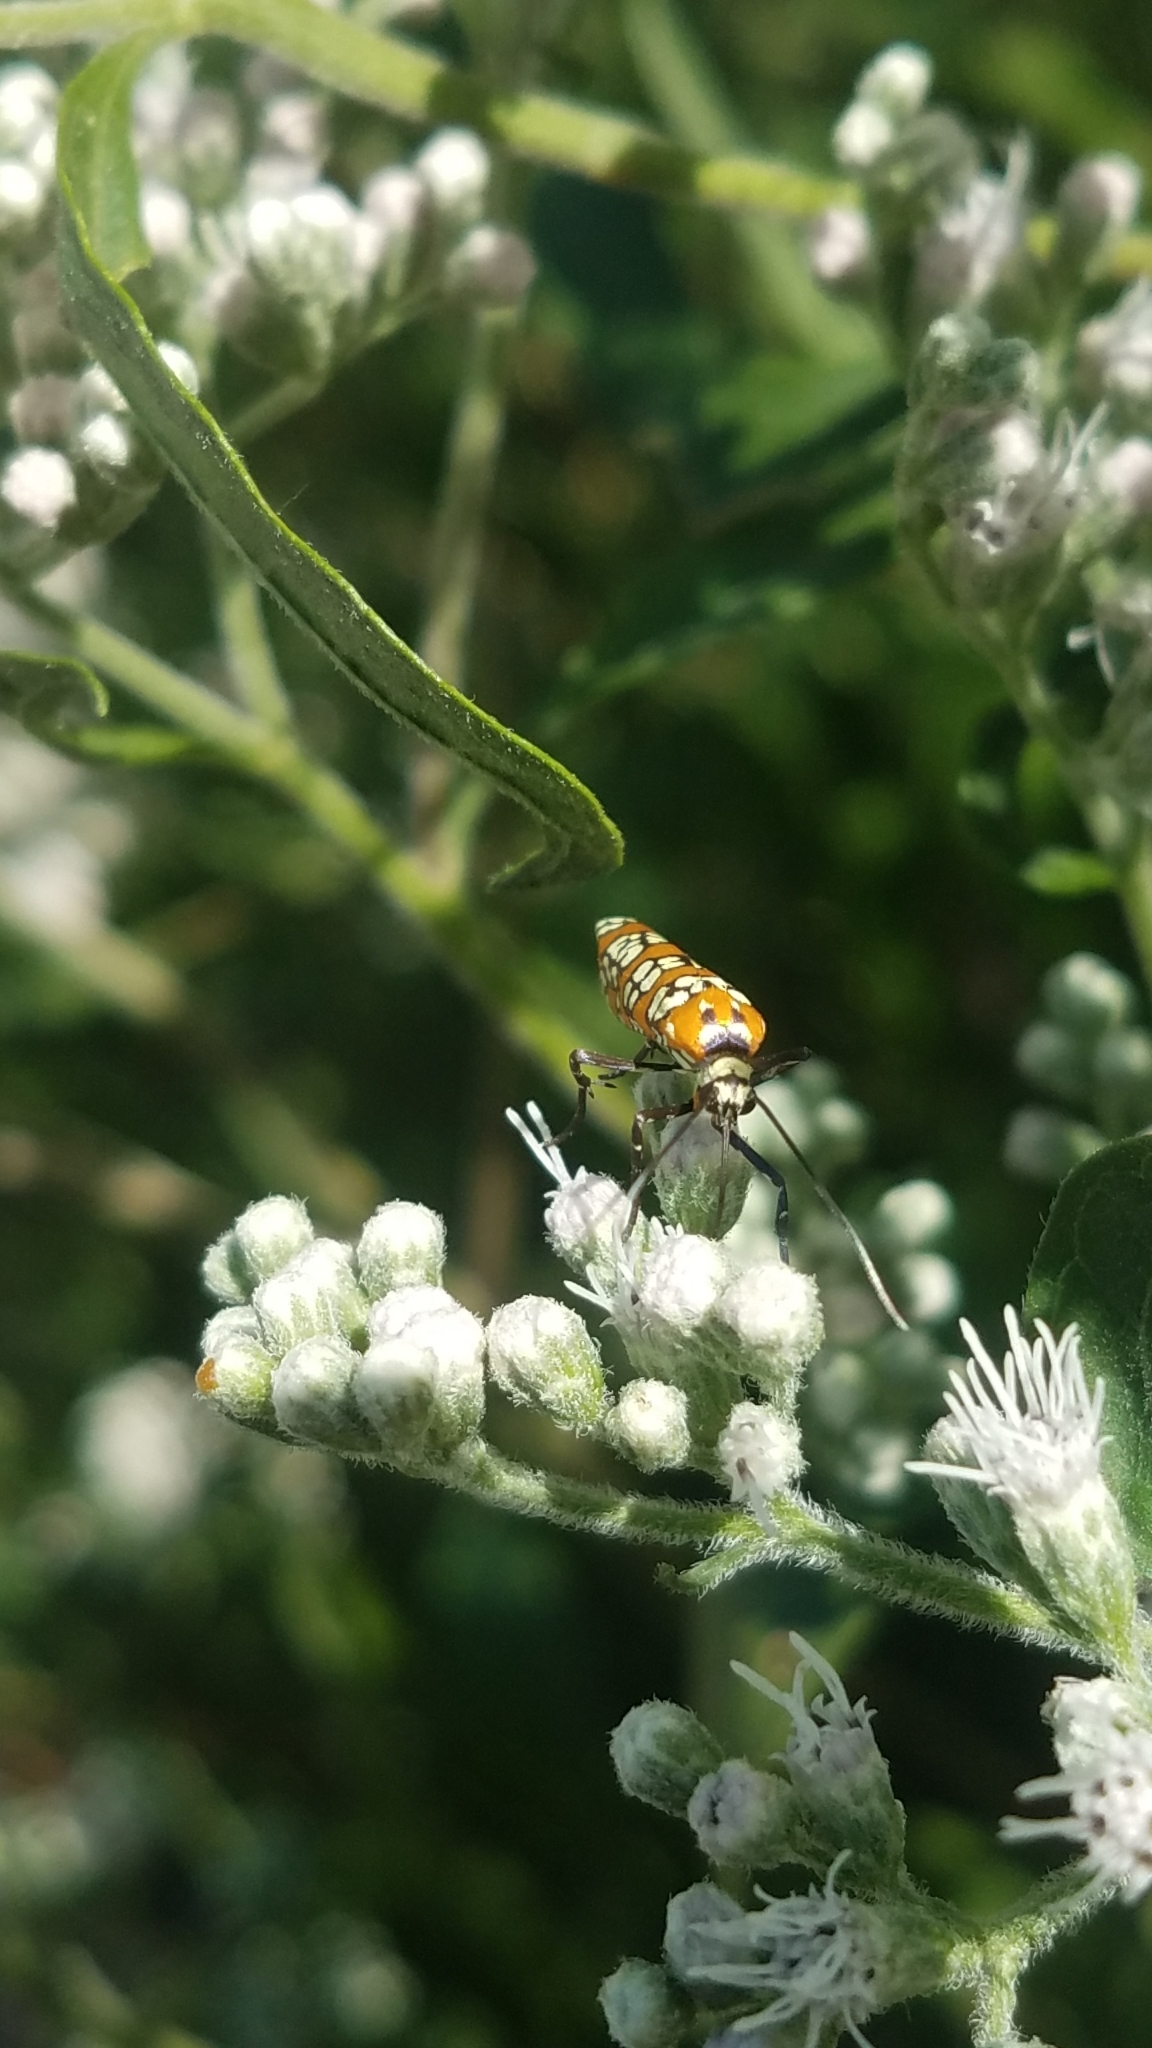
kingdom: Animalia
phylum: Arthropoda
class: Insecta
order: Lepidoptera
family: Attevidae
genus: Atteva
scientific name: Atteva punctella
